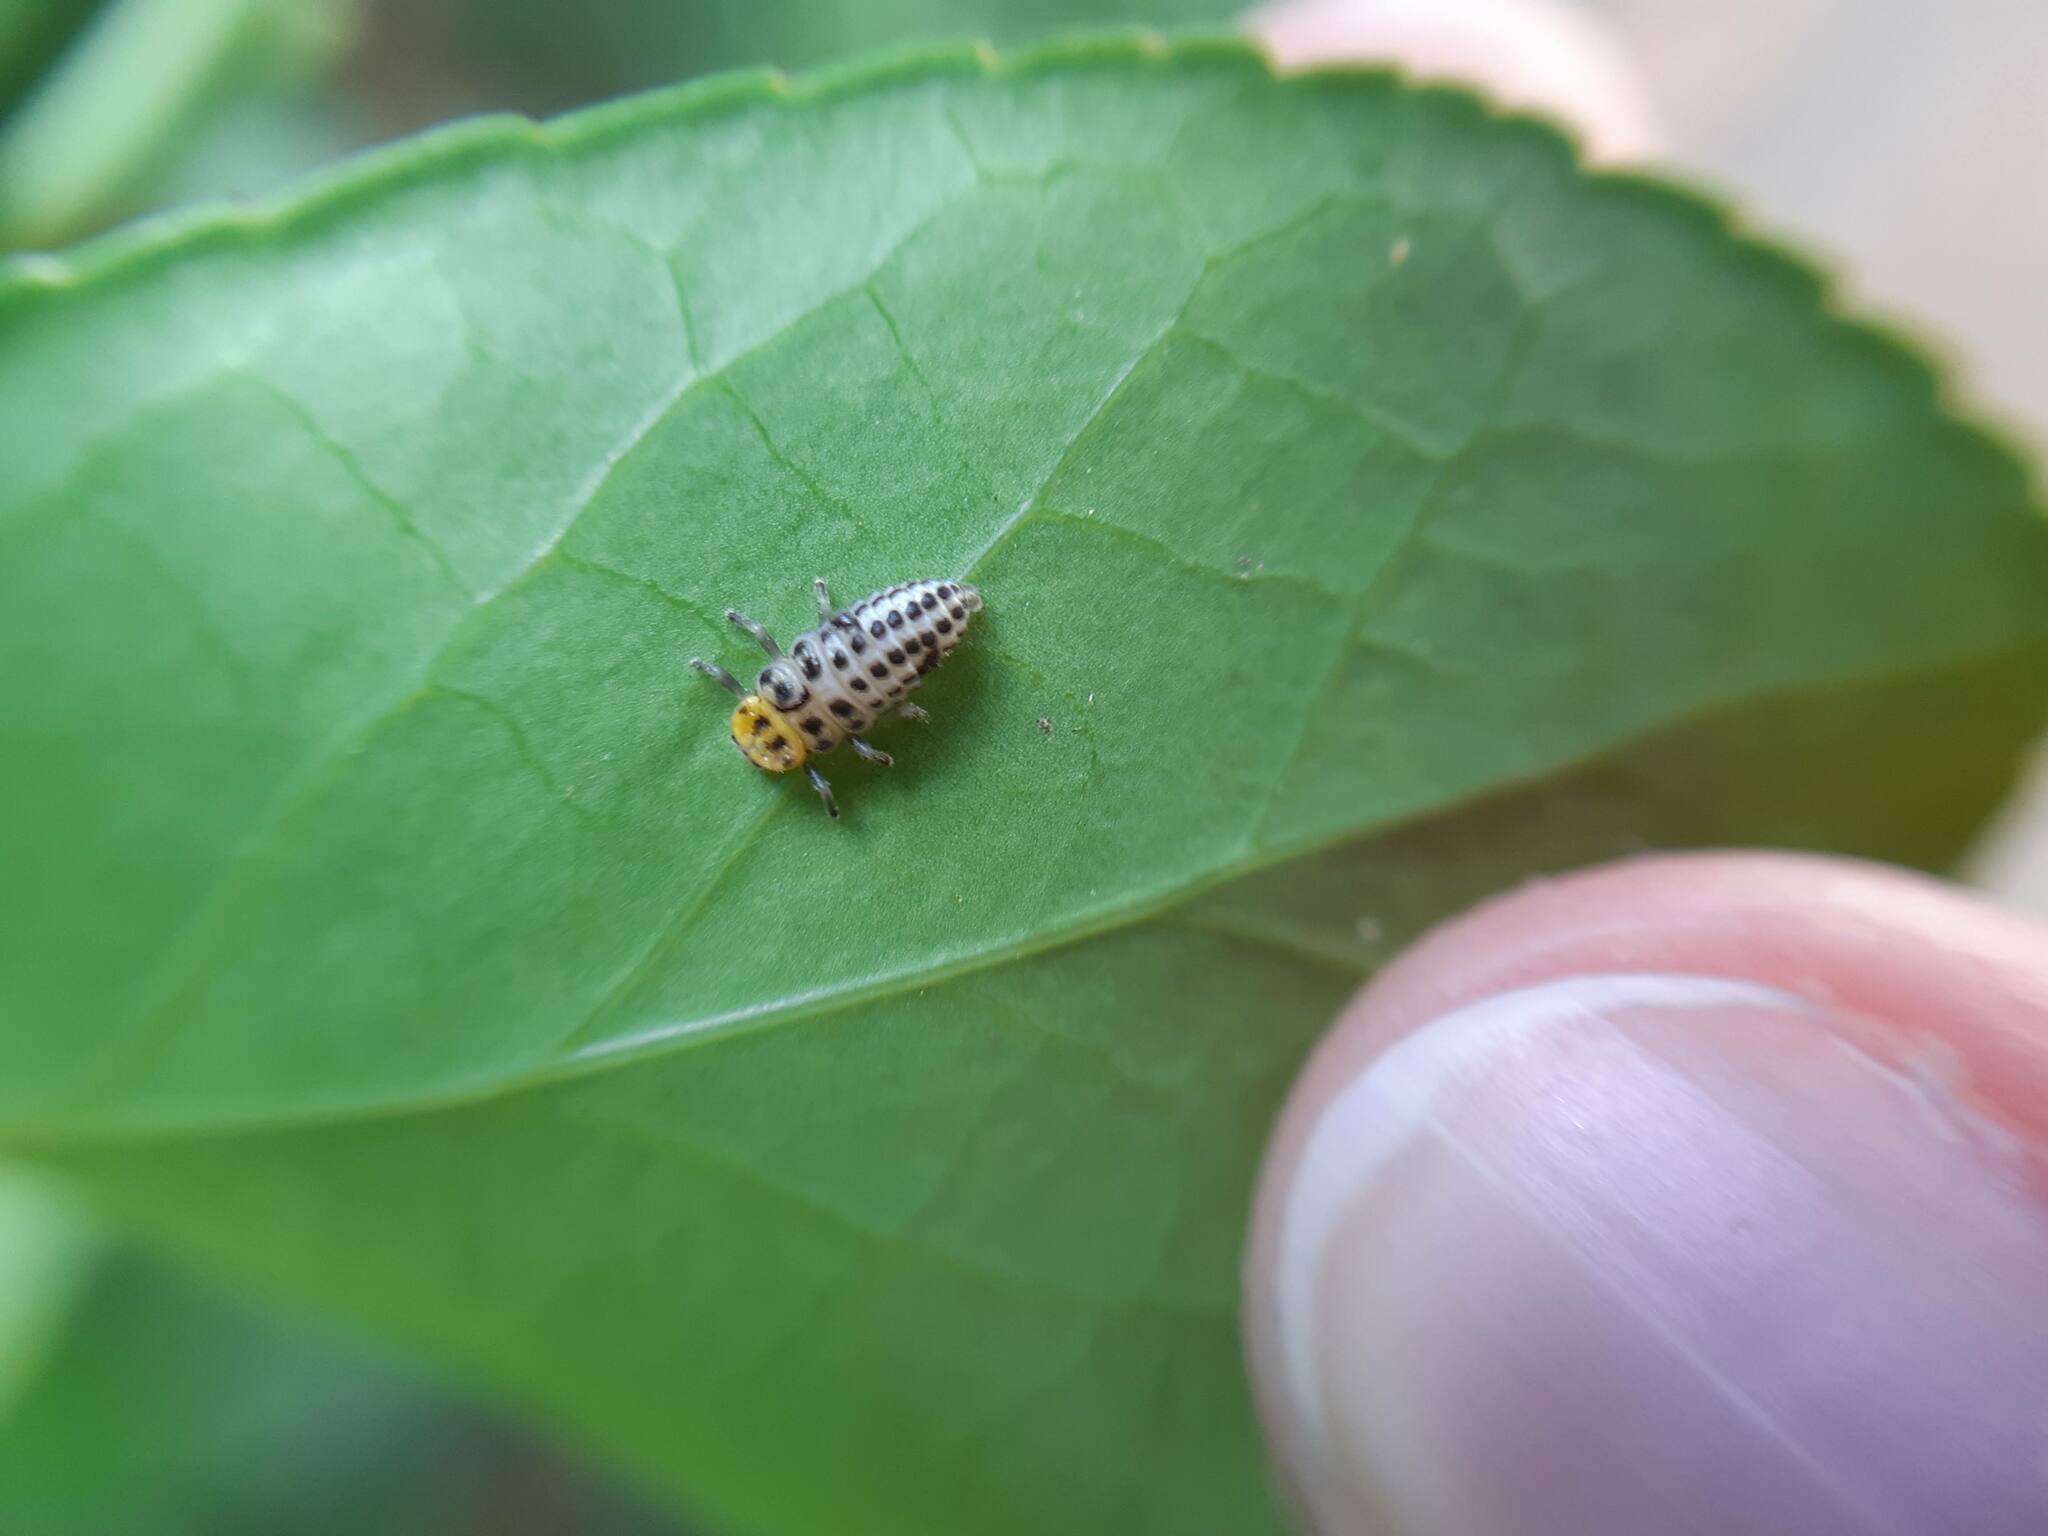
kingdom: Animalia
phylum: Arthropoda
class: Insecta
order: Coleoptera
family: Coccinellidae
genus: Illeis
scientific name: Illeis galbula
